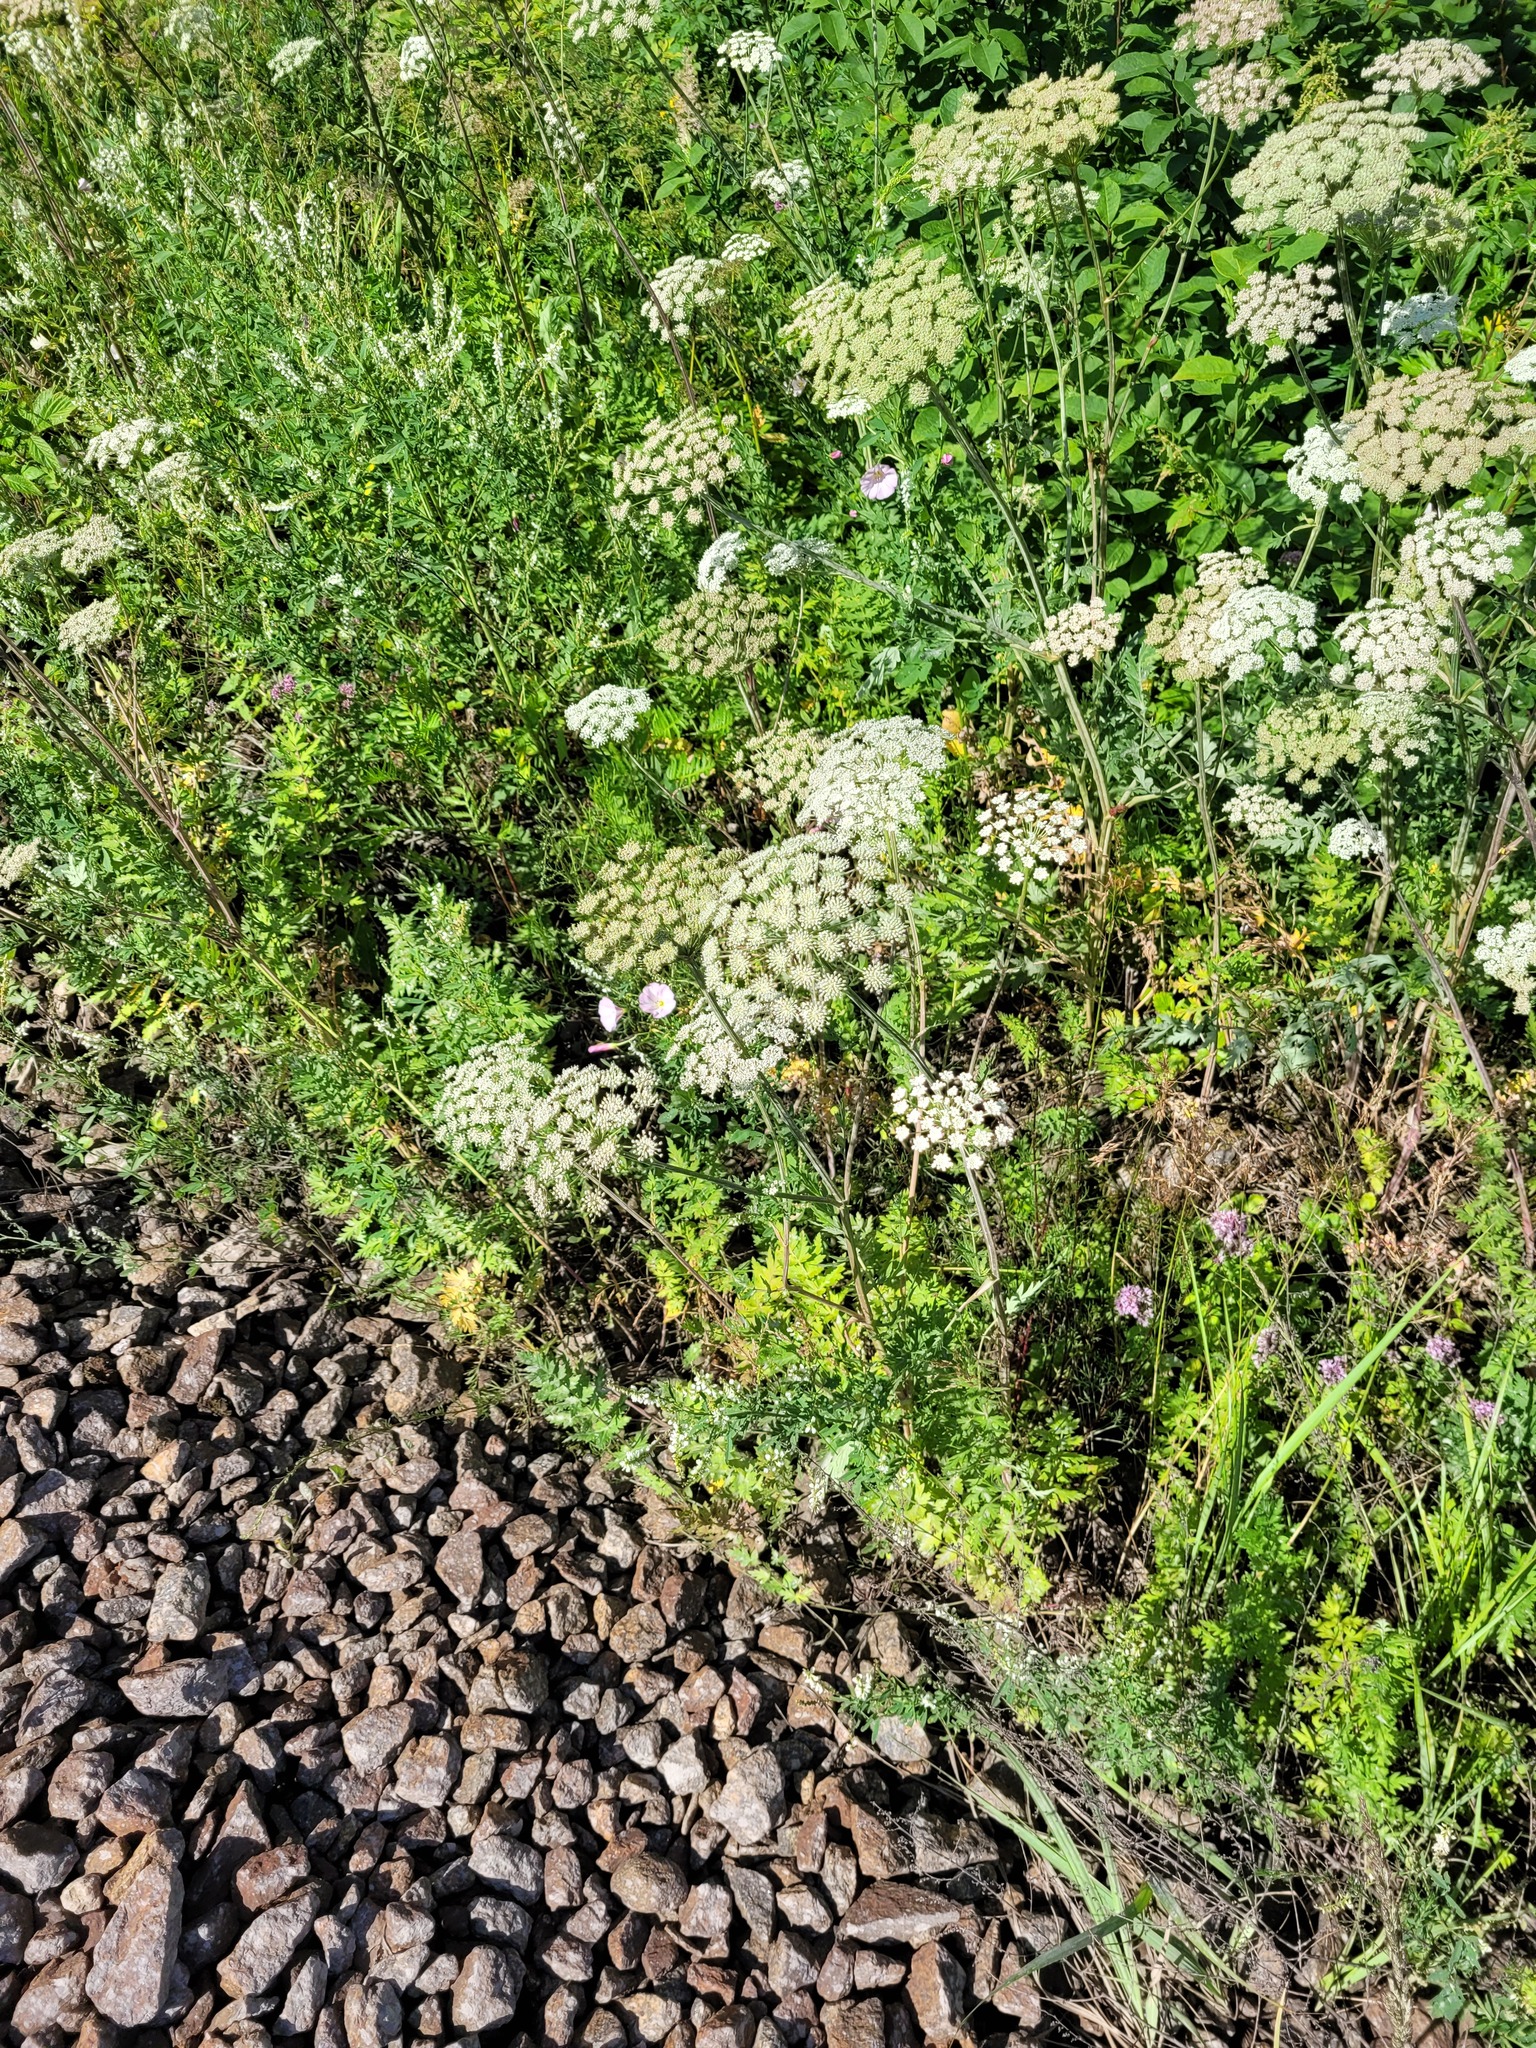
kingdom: Plantae
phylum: Tracheophyta
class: Magnoliopsida
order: Apiales
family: Apiaceae
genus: Seseli
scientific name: Seseli libanotis
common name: Mooncarrot
